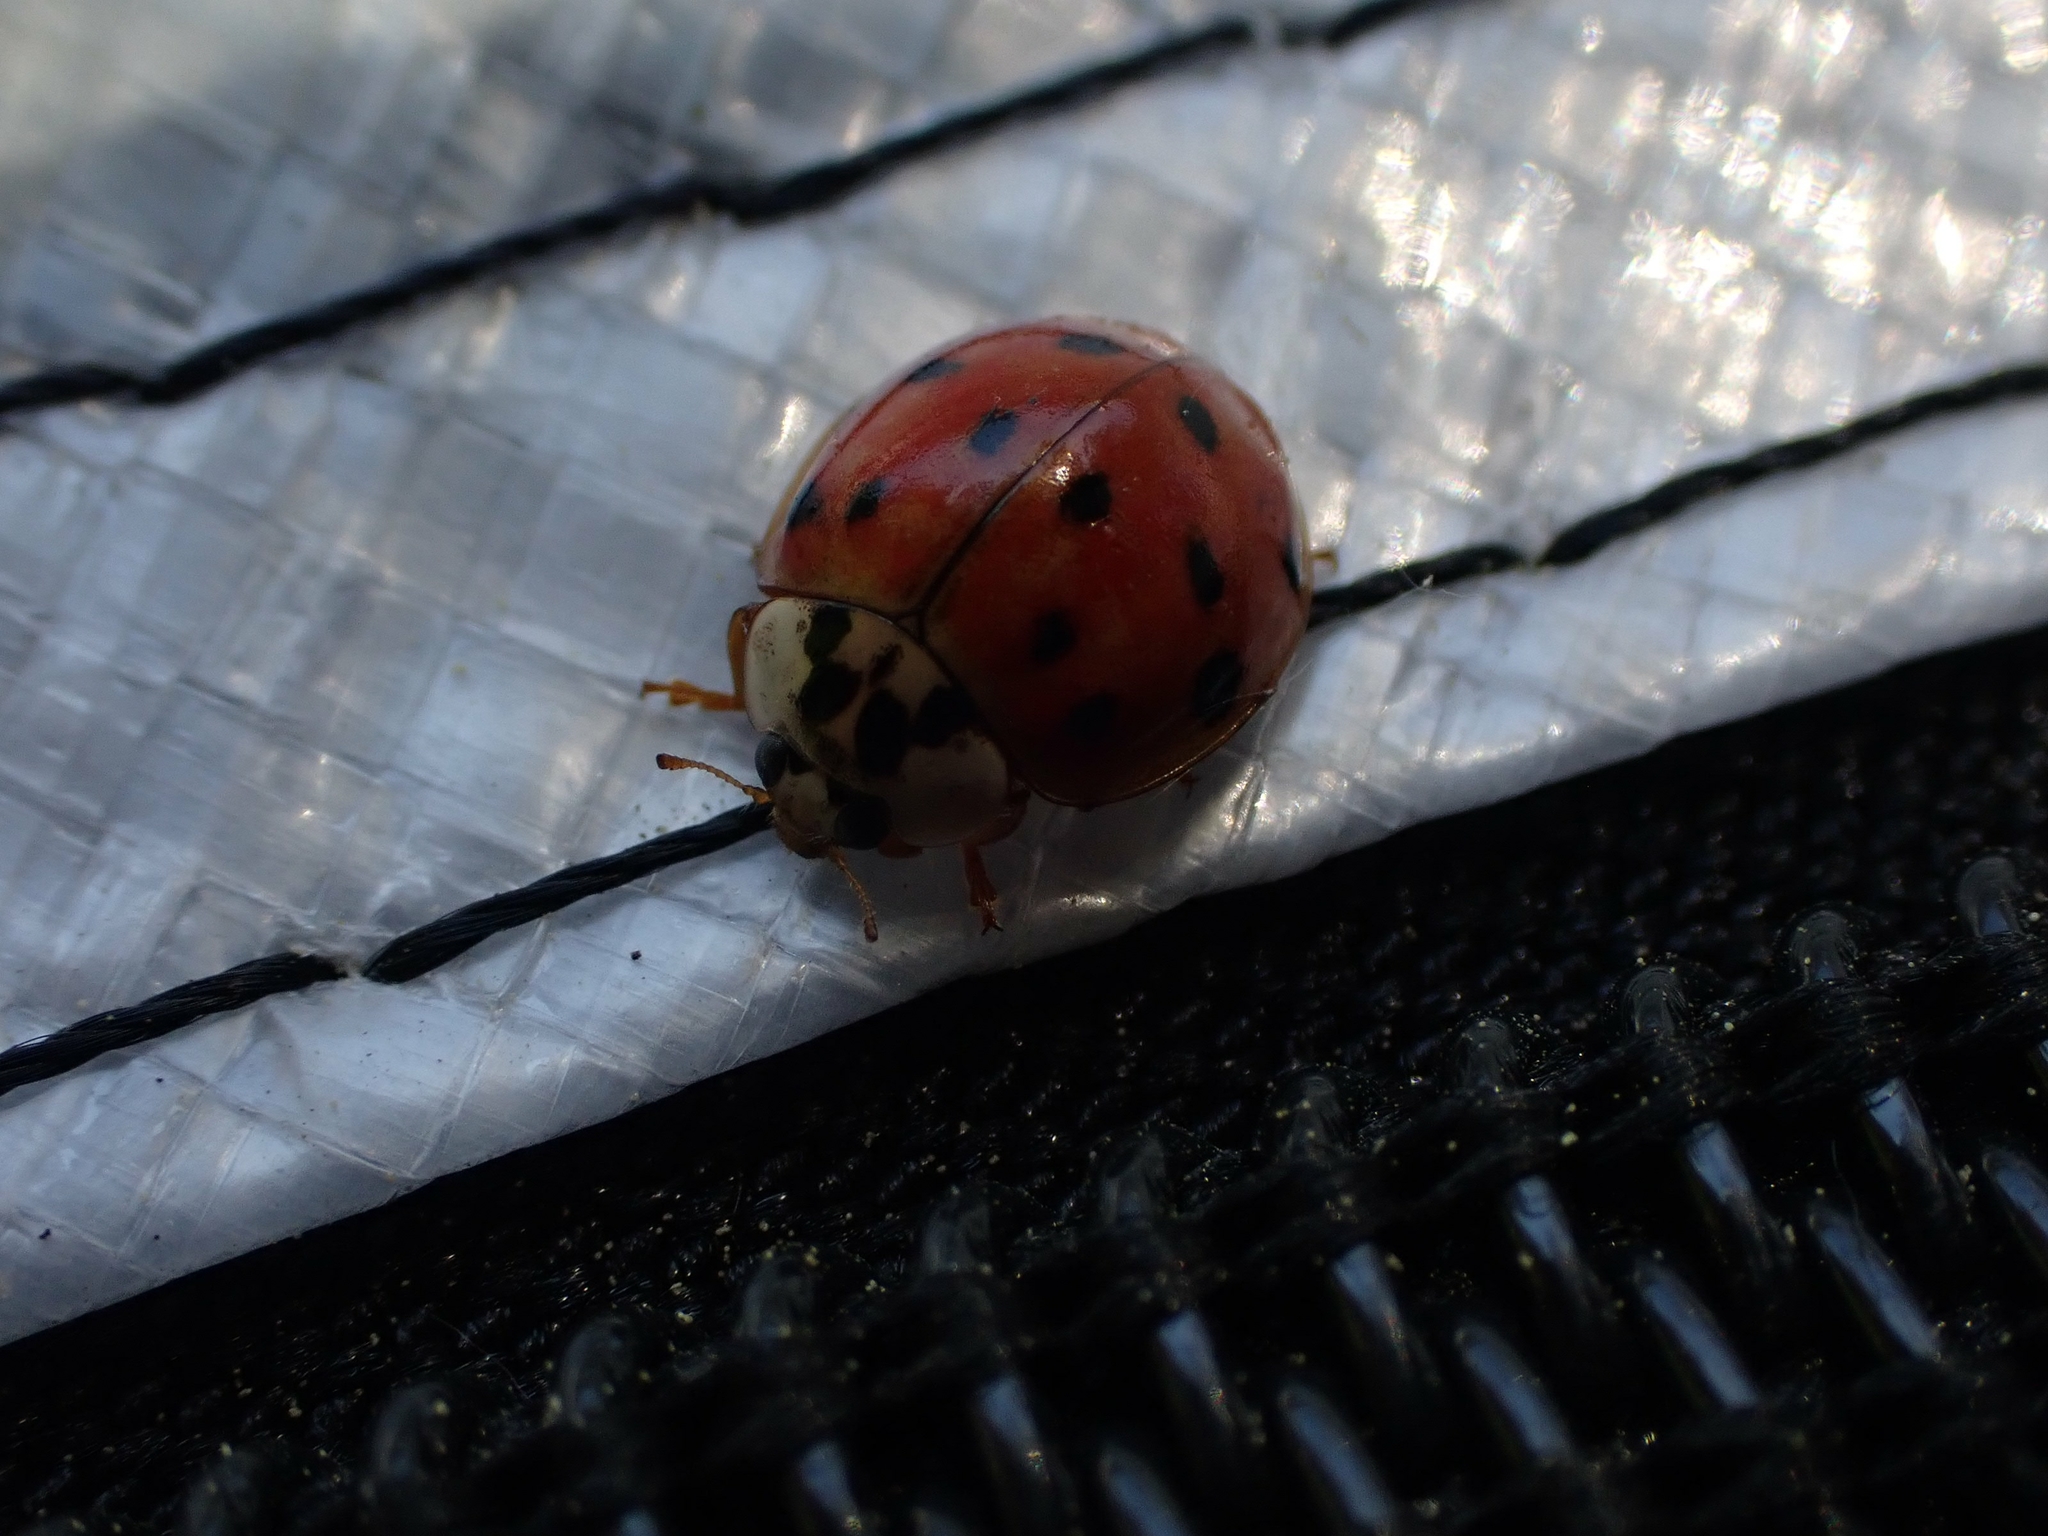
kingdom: Animalia
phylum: Arthropoda
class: Insecta
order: Coleoptera
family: Coccinellidae
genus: Harmonia
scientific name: Harmonia axyridis
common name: Harlequin ladybird
